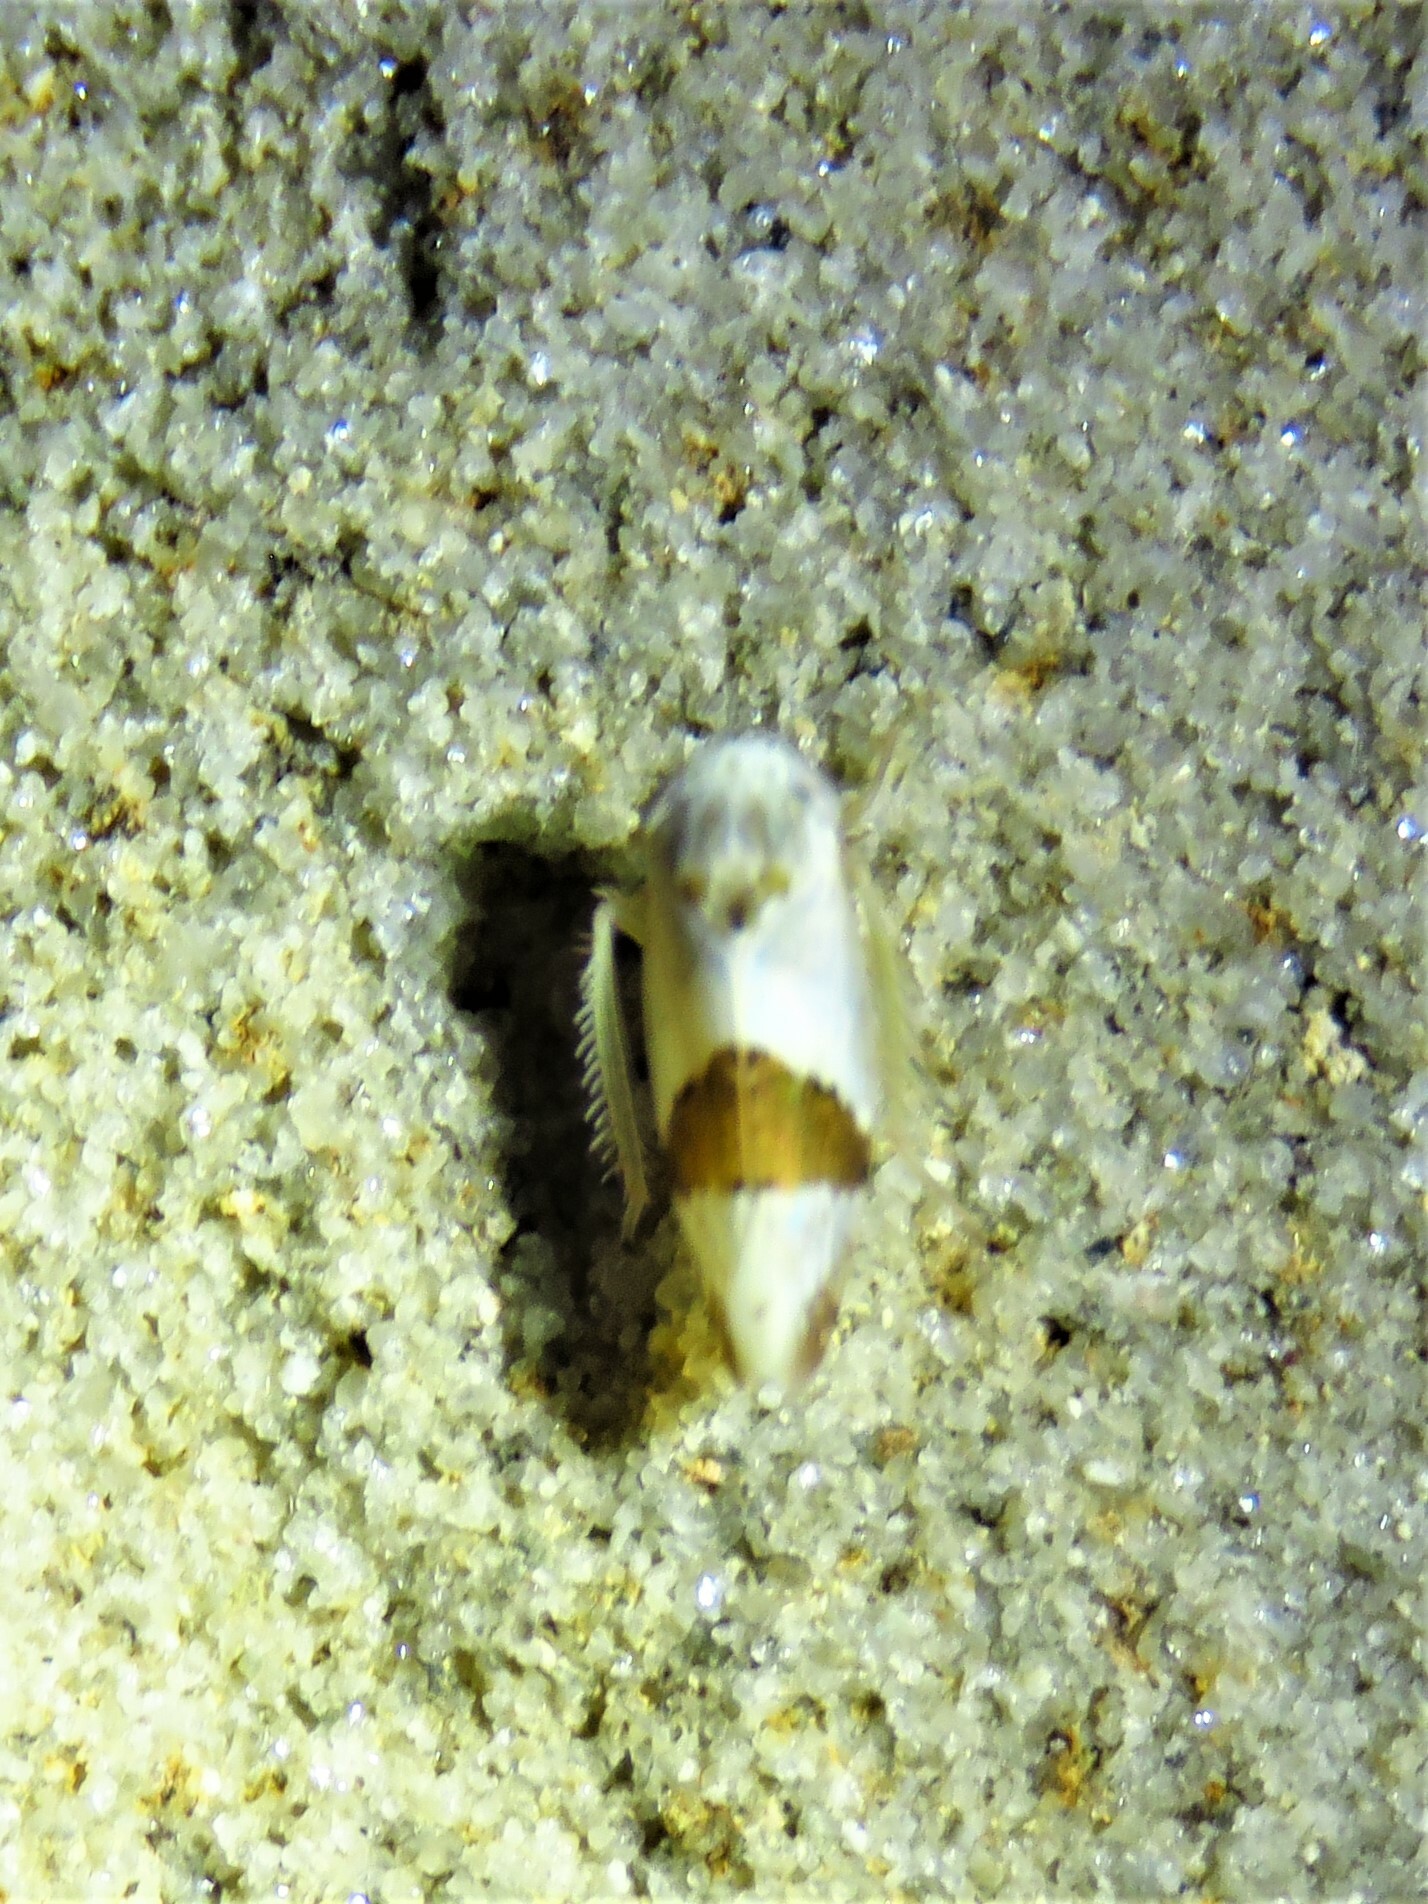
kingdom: Animalia
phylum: Arthropoda
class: Insecta
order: Hemiptera
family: Cicadellidae
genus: Norvellina
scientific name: Norvellina seminuda
